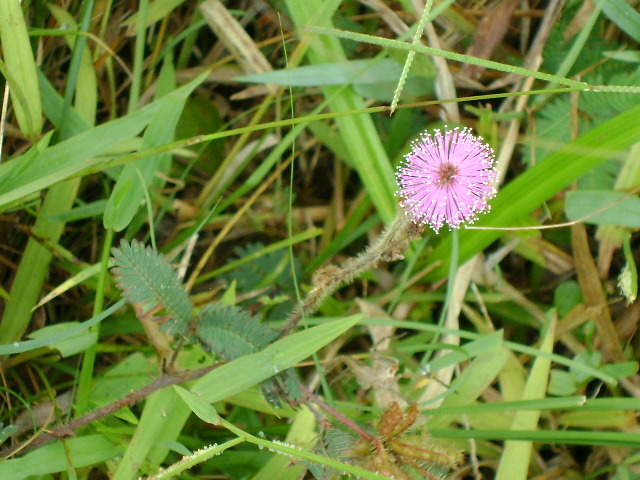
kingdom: Plantae
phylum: Tracheophyta
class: Magnoliopsida
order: Fabales
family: Fabaceae
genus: Mimosa
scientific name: Mimosa pudica
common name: Sensitive plant
